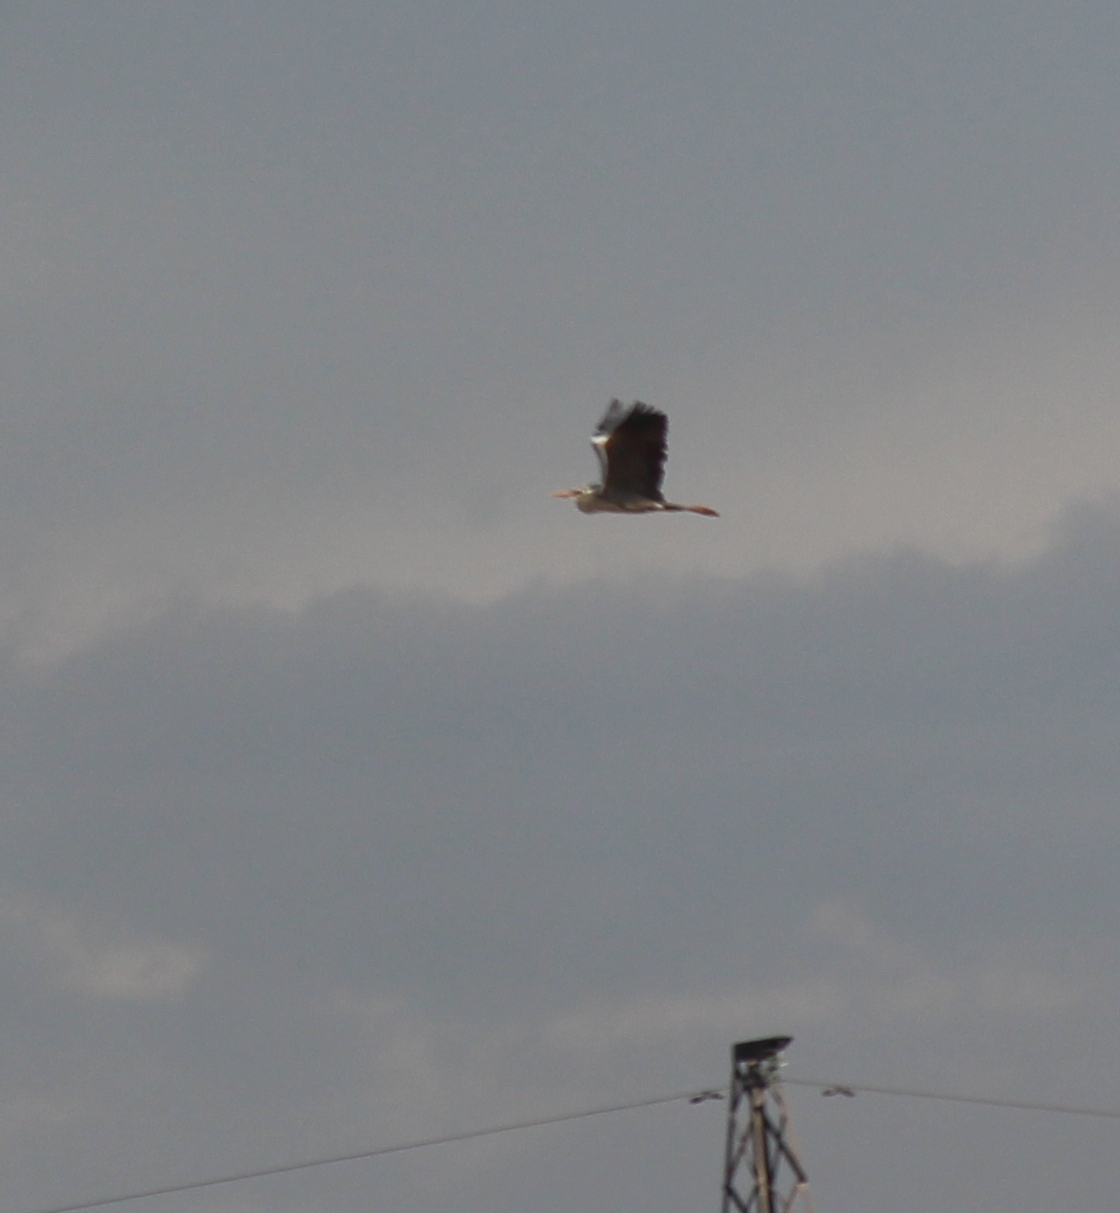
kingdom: Animalia
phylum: Chordata
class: Aves
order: Pelecaniformes
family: Ardeidae
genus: Ardea
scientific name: Ardea cinerea
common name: Grey heron
